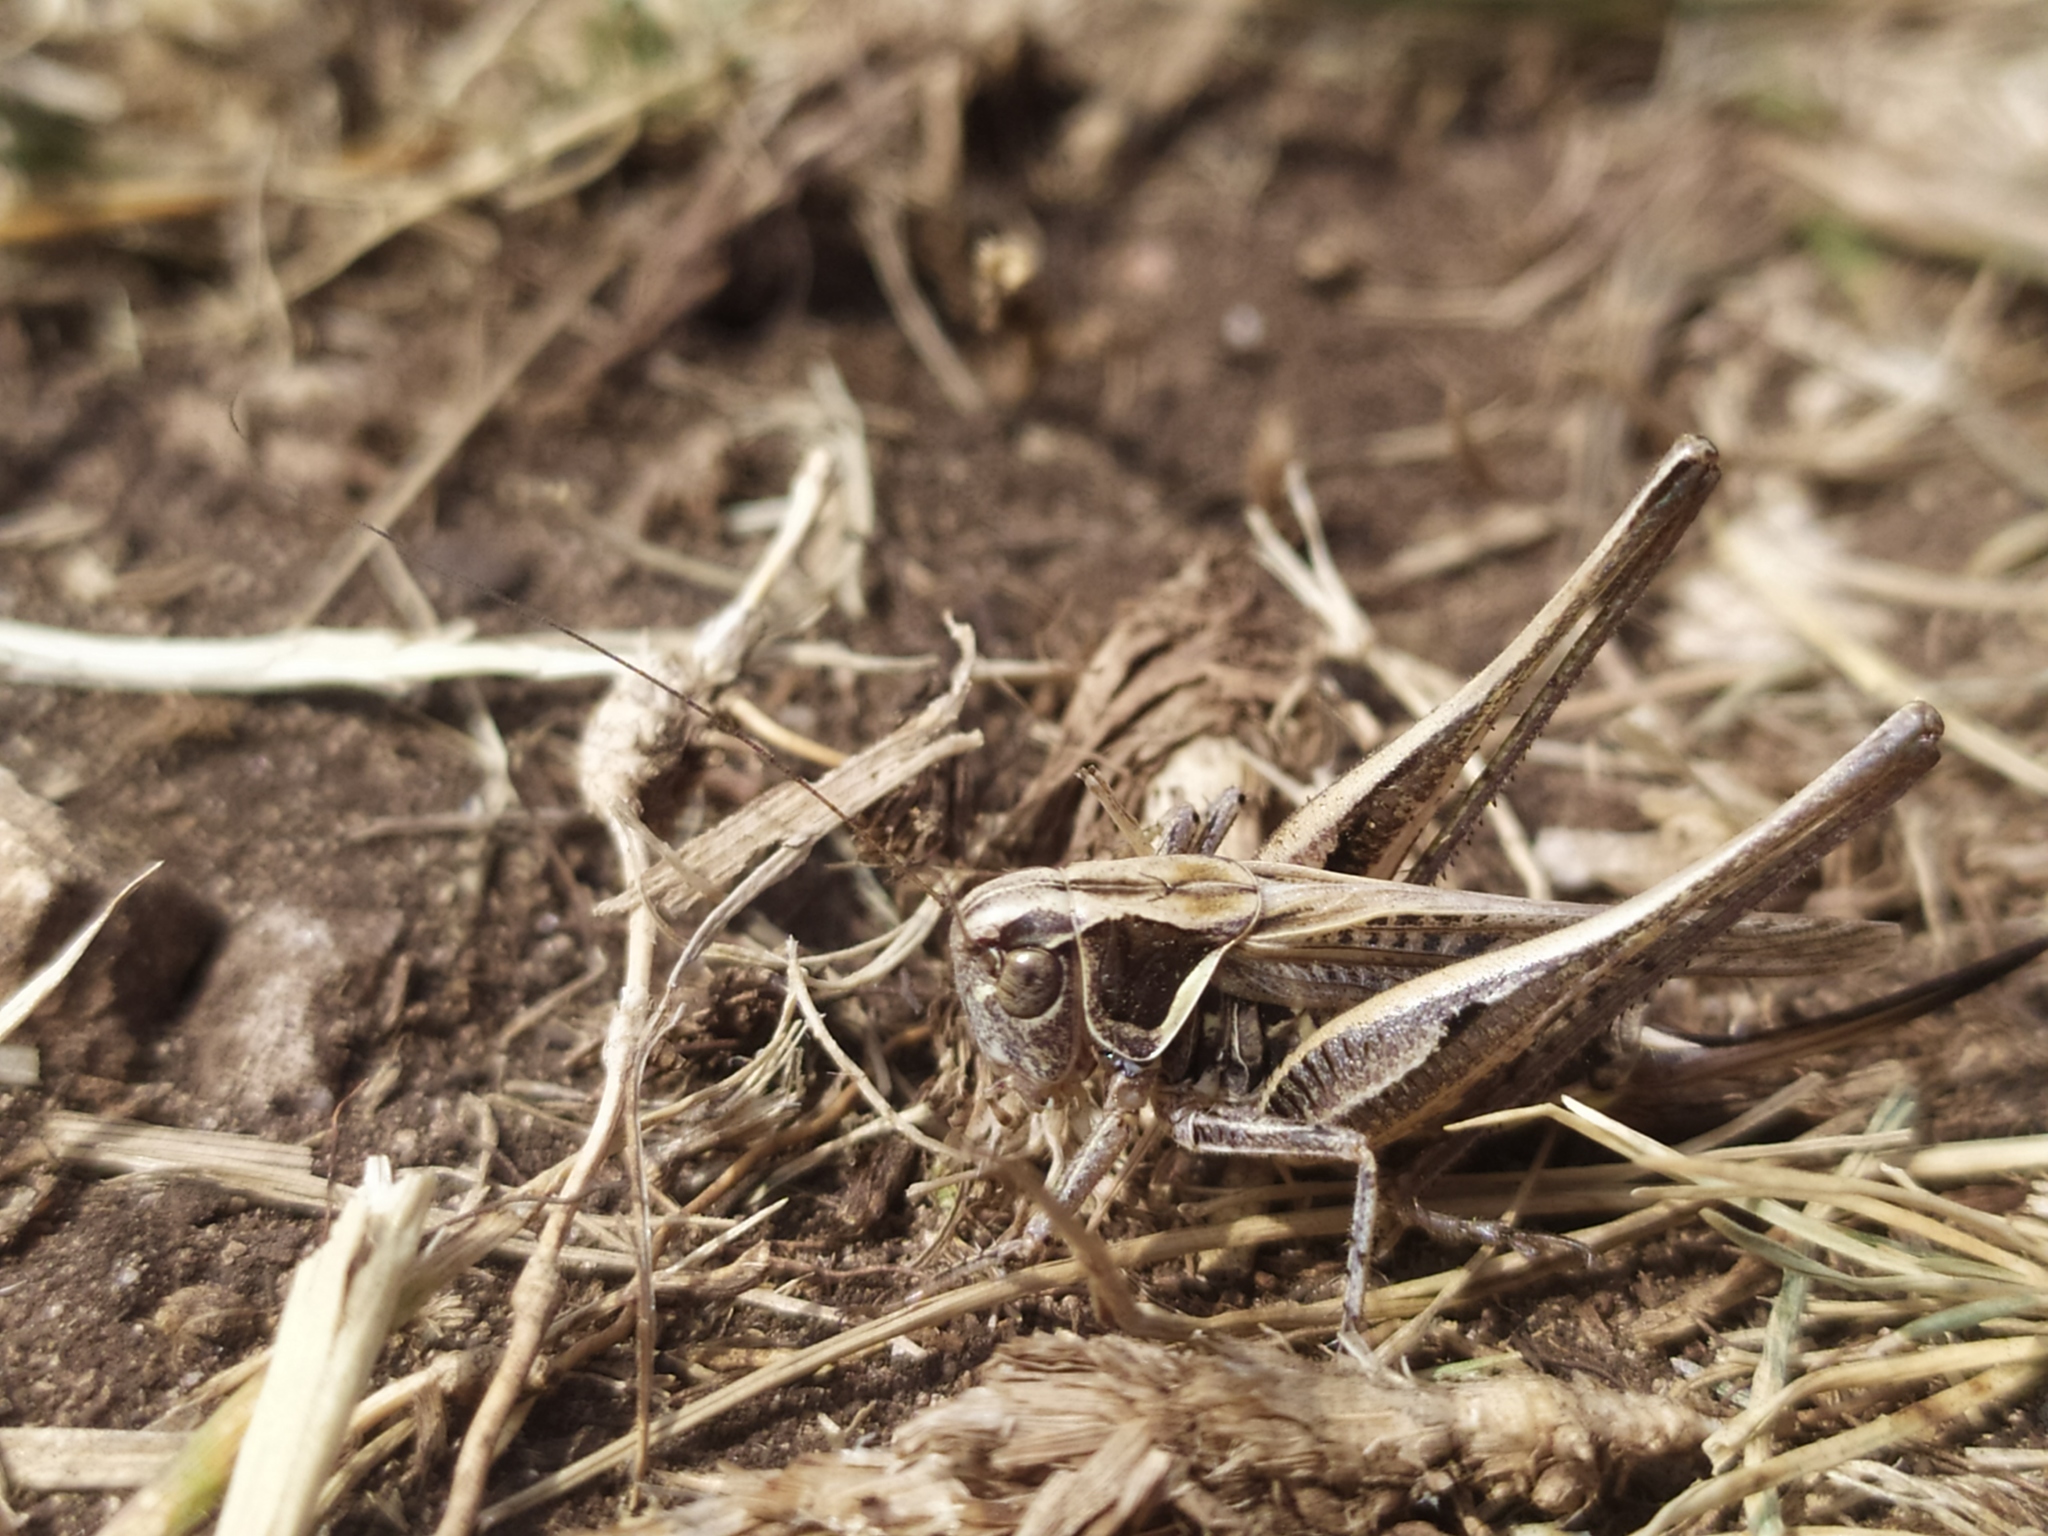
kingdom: Animalia
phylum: Arthropoda
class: Insecta
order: Orthoptera
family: Tettigoniidae
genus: Montana
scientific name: Montana stricta
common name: Italian bush-cricket
